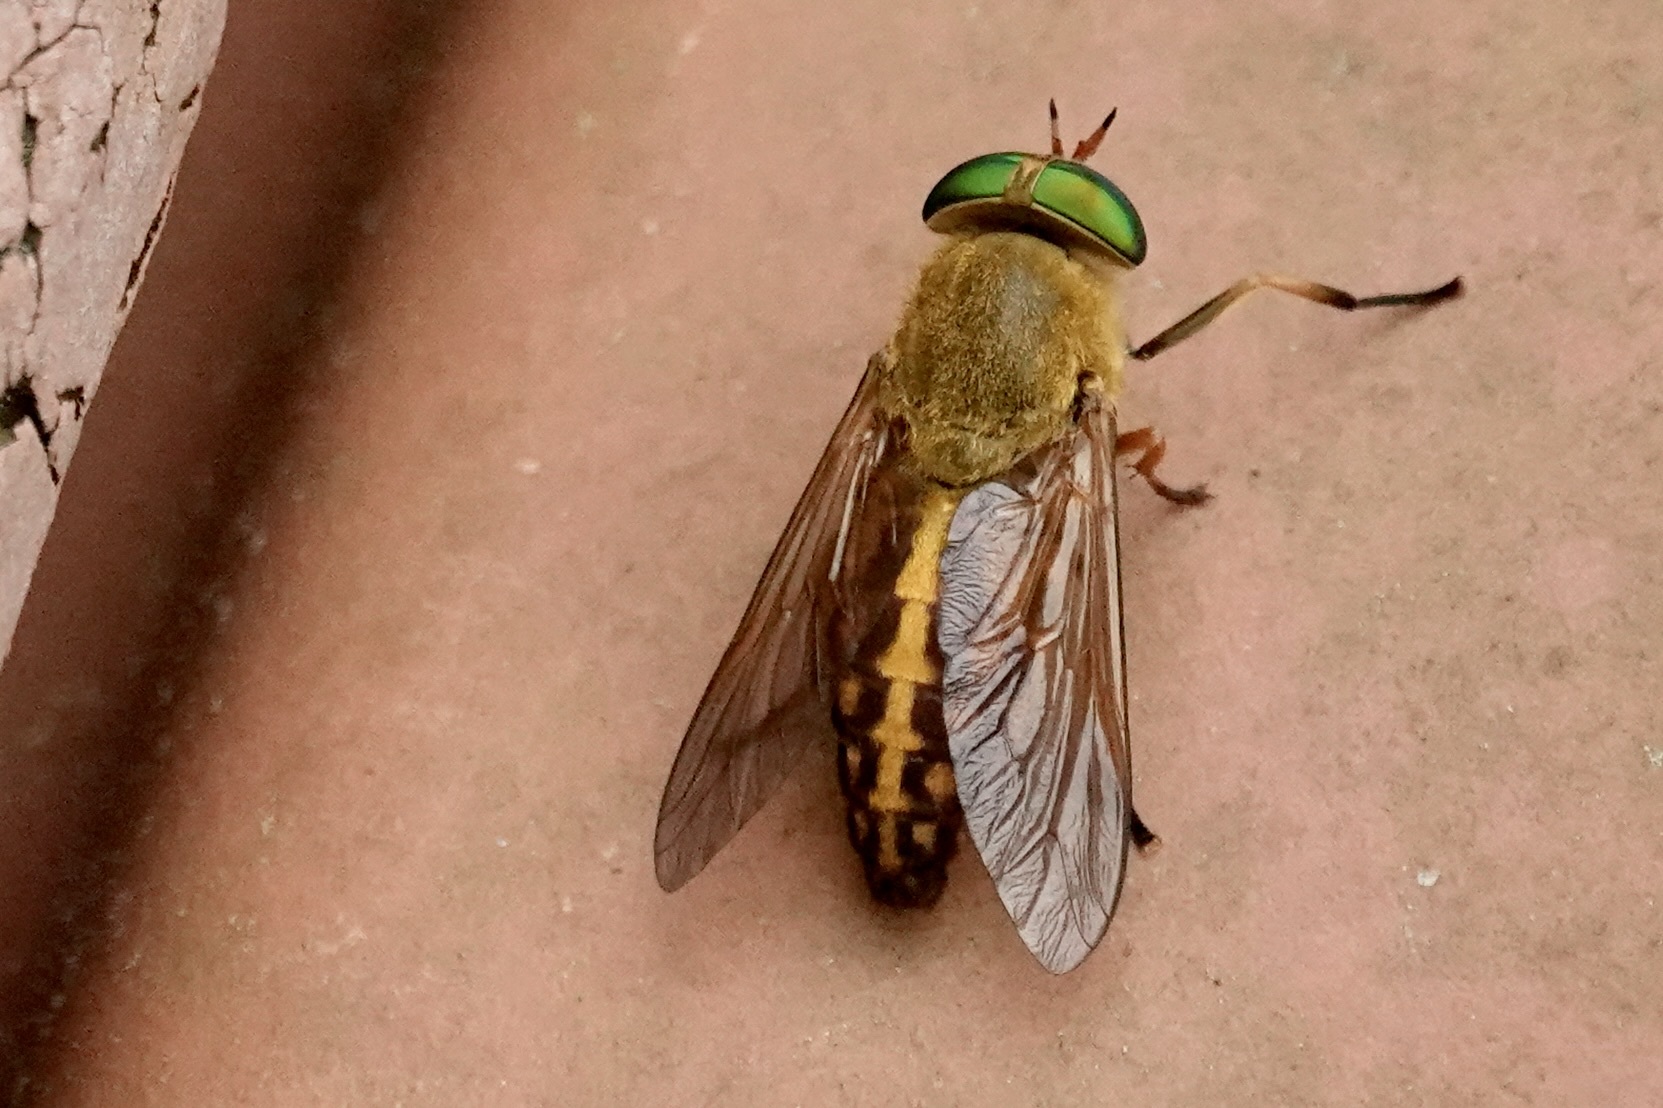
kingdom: Animalia
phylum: Arthropoda
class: Insecta
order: Diptera
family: Tabanidae
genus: Tabanus
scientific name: Tabanus fulvulus
